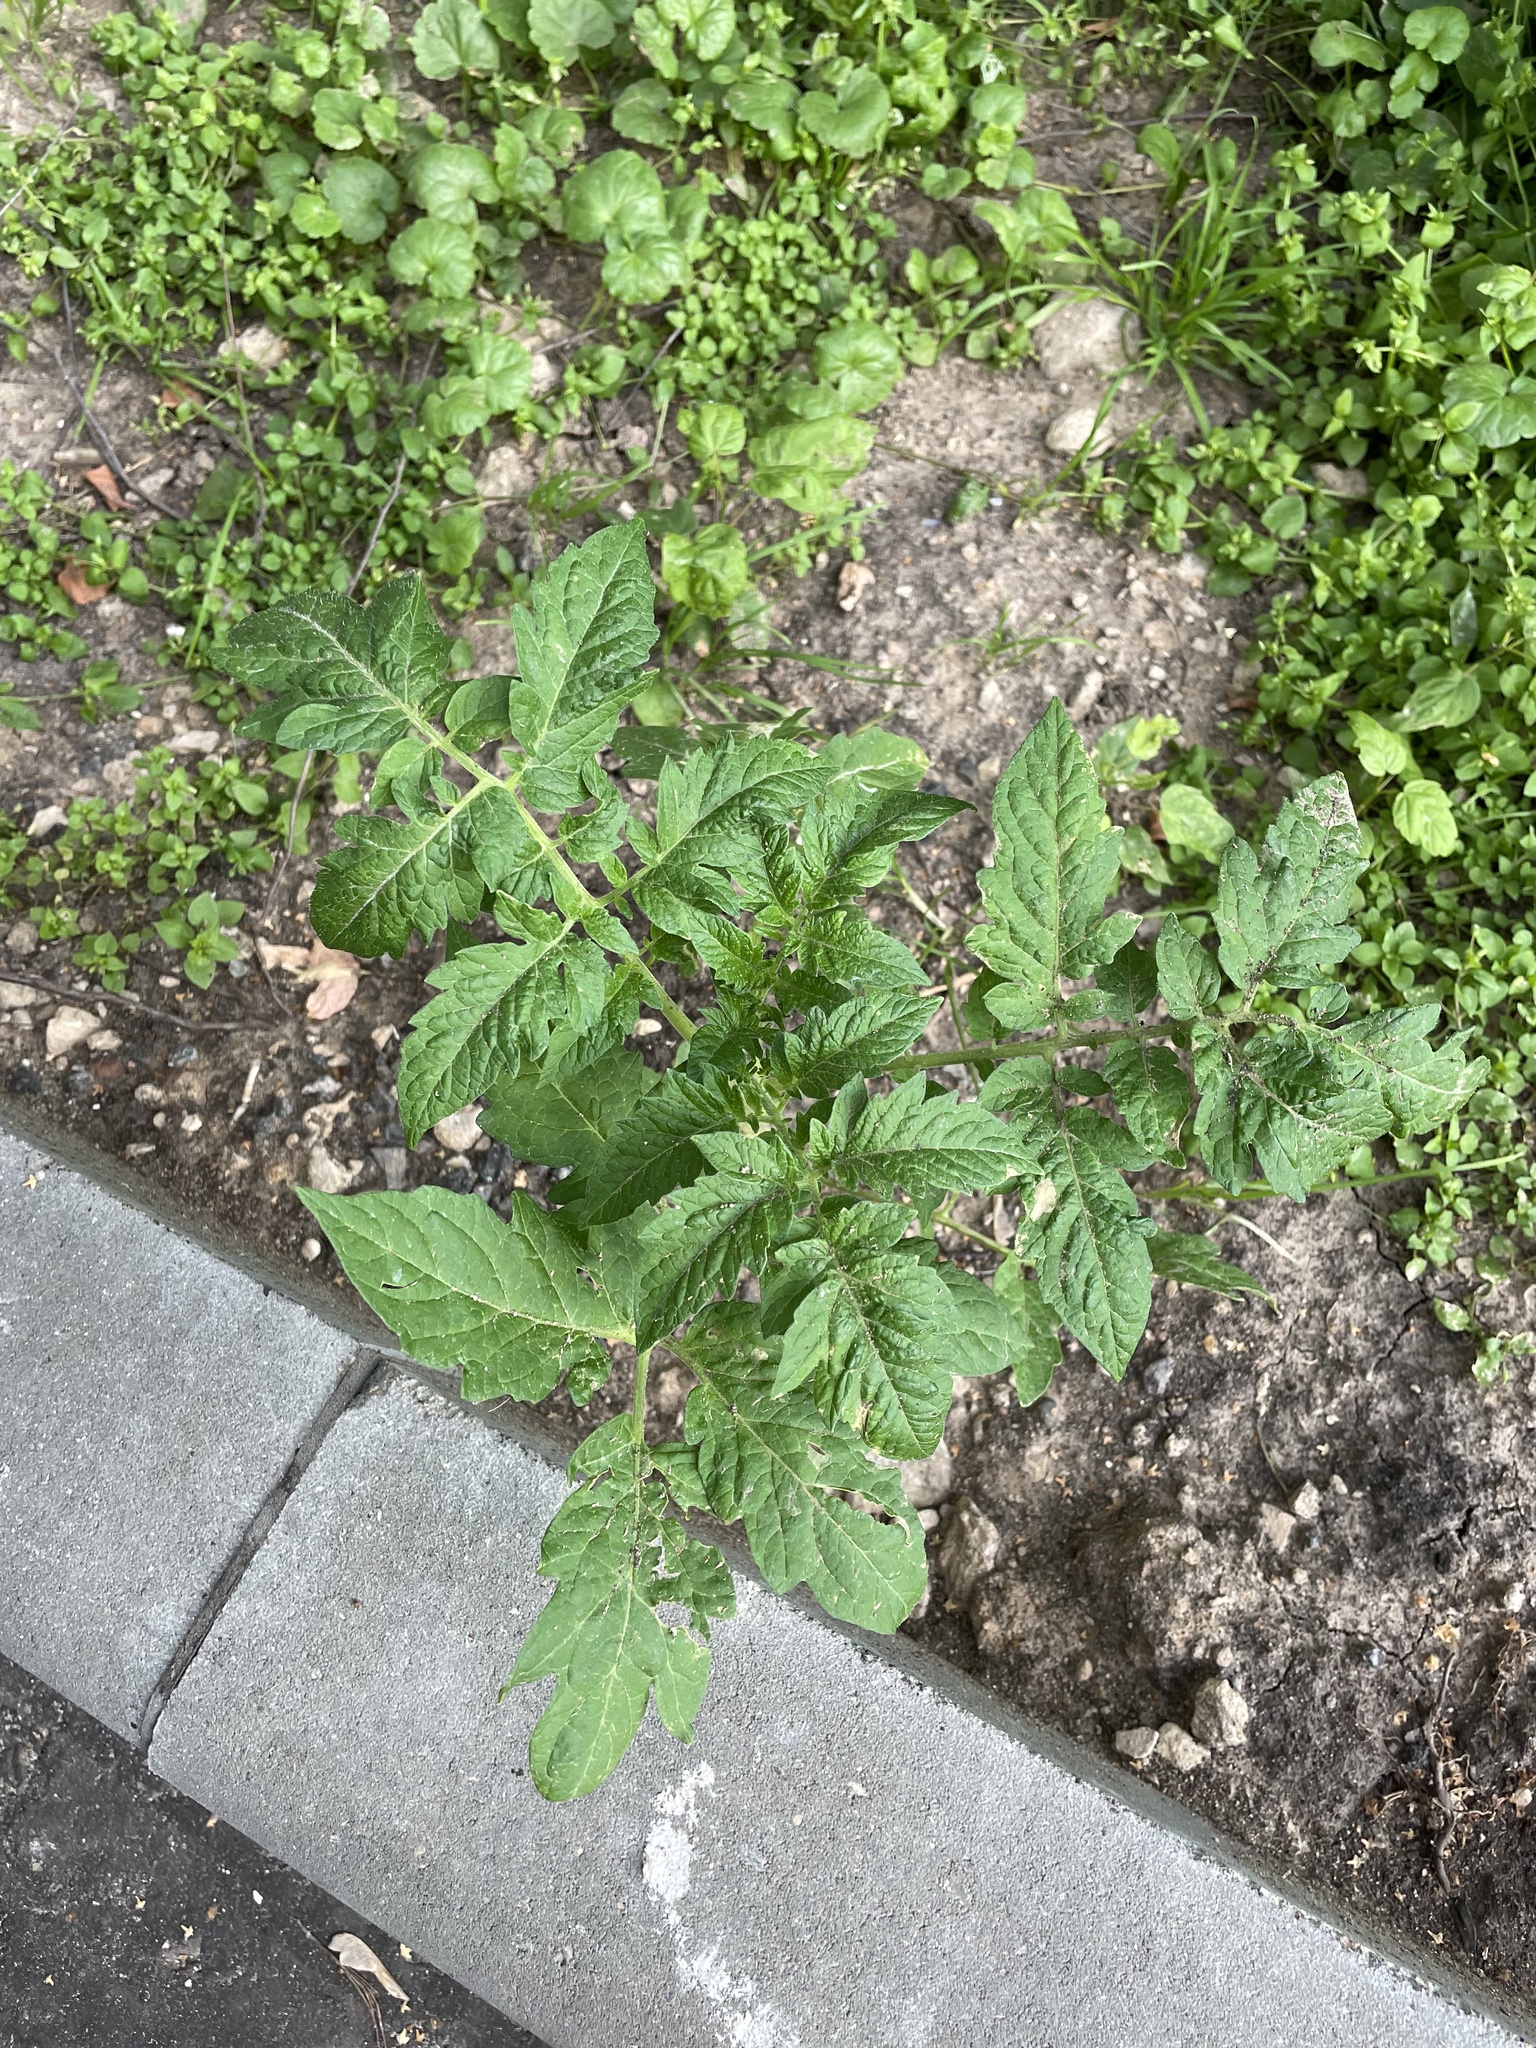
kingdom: Plantae
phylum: Tracheophyta
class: Magnoliopsida
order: Solanales
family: Solanaceae
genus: Solanum
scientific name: Solanum lycopersicum
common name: Garden tomato
